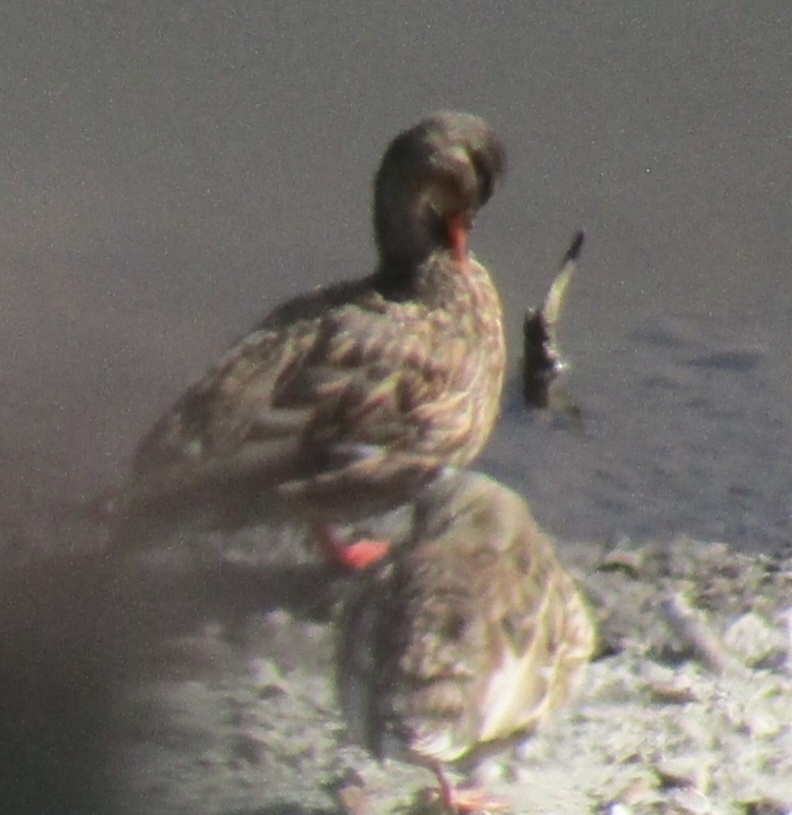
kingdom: Animalia
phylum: Chordata
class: Aves
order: Anseriformes
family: Anatidae
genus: Anas
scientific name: Anas platyrhynchos
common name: Mallard
